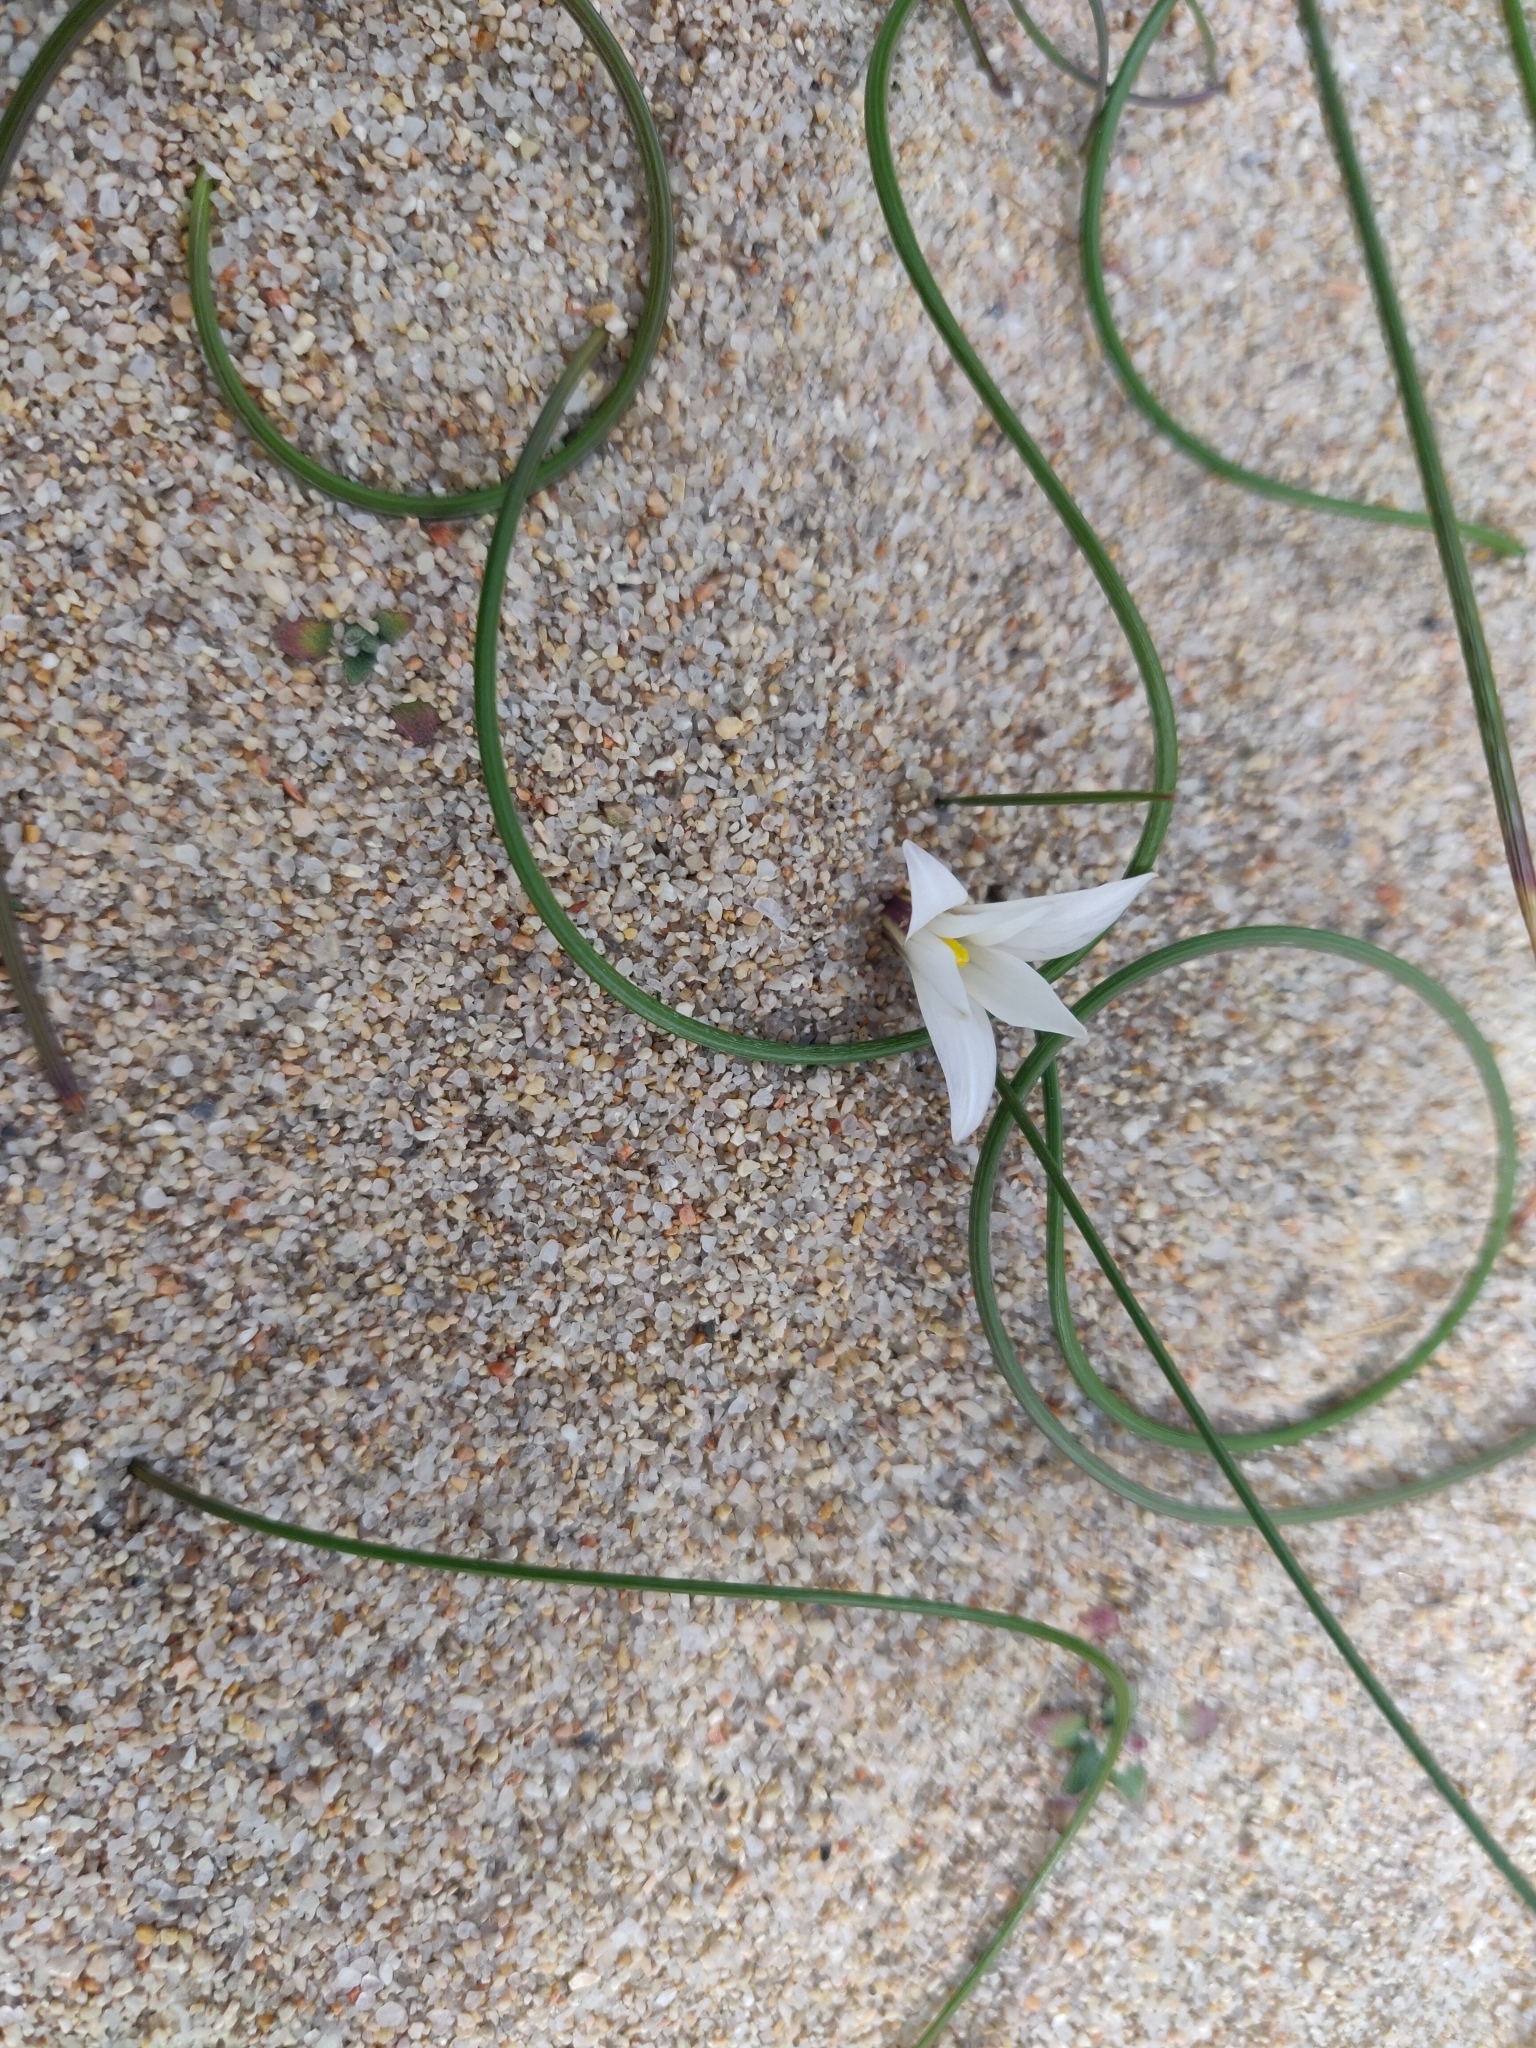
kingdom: Plantae
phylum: Tracheophyta
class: Liliopsida
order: Asparagales
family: Iridaceae
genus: Romulea
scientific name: Romulea columnae
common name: Sand-crocus
